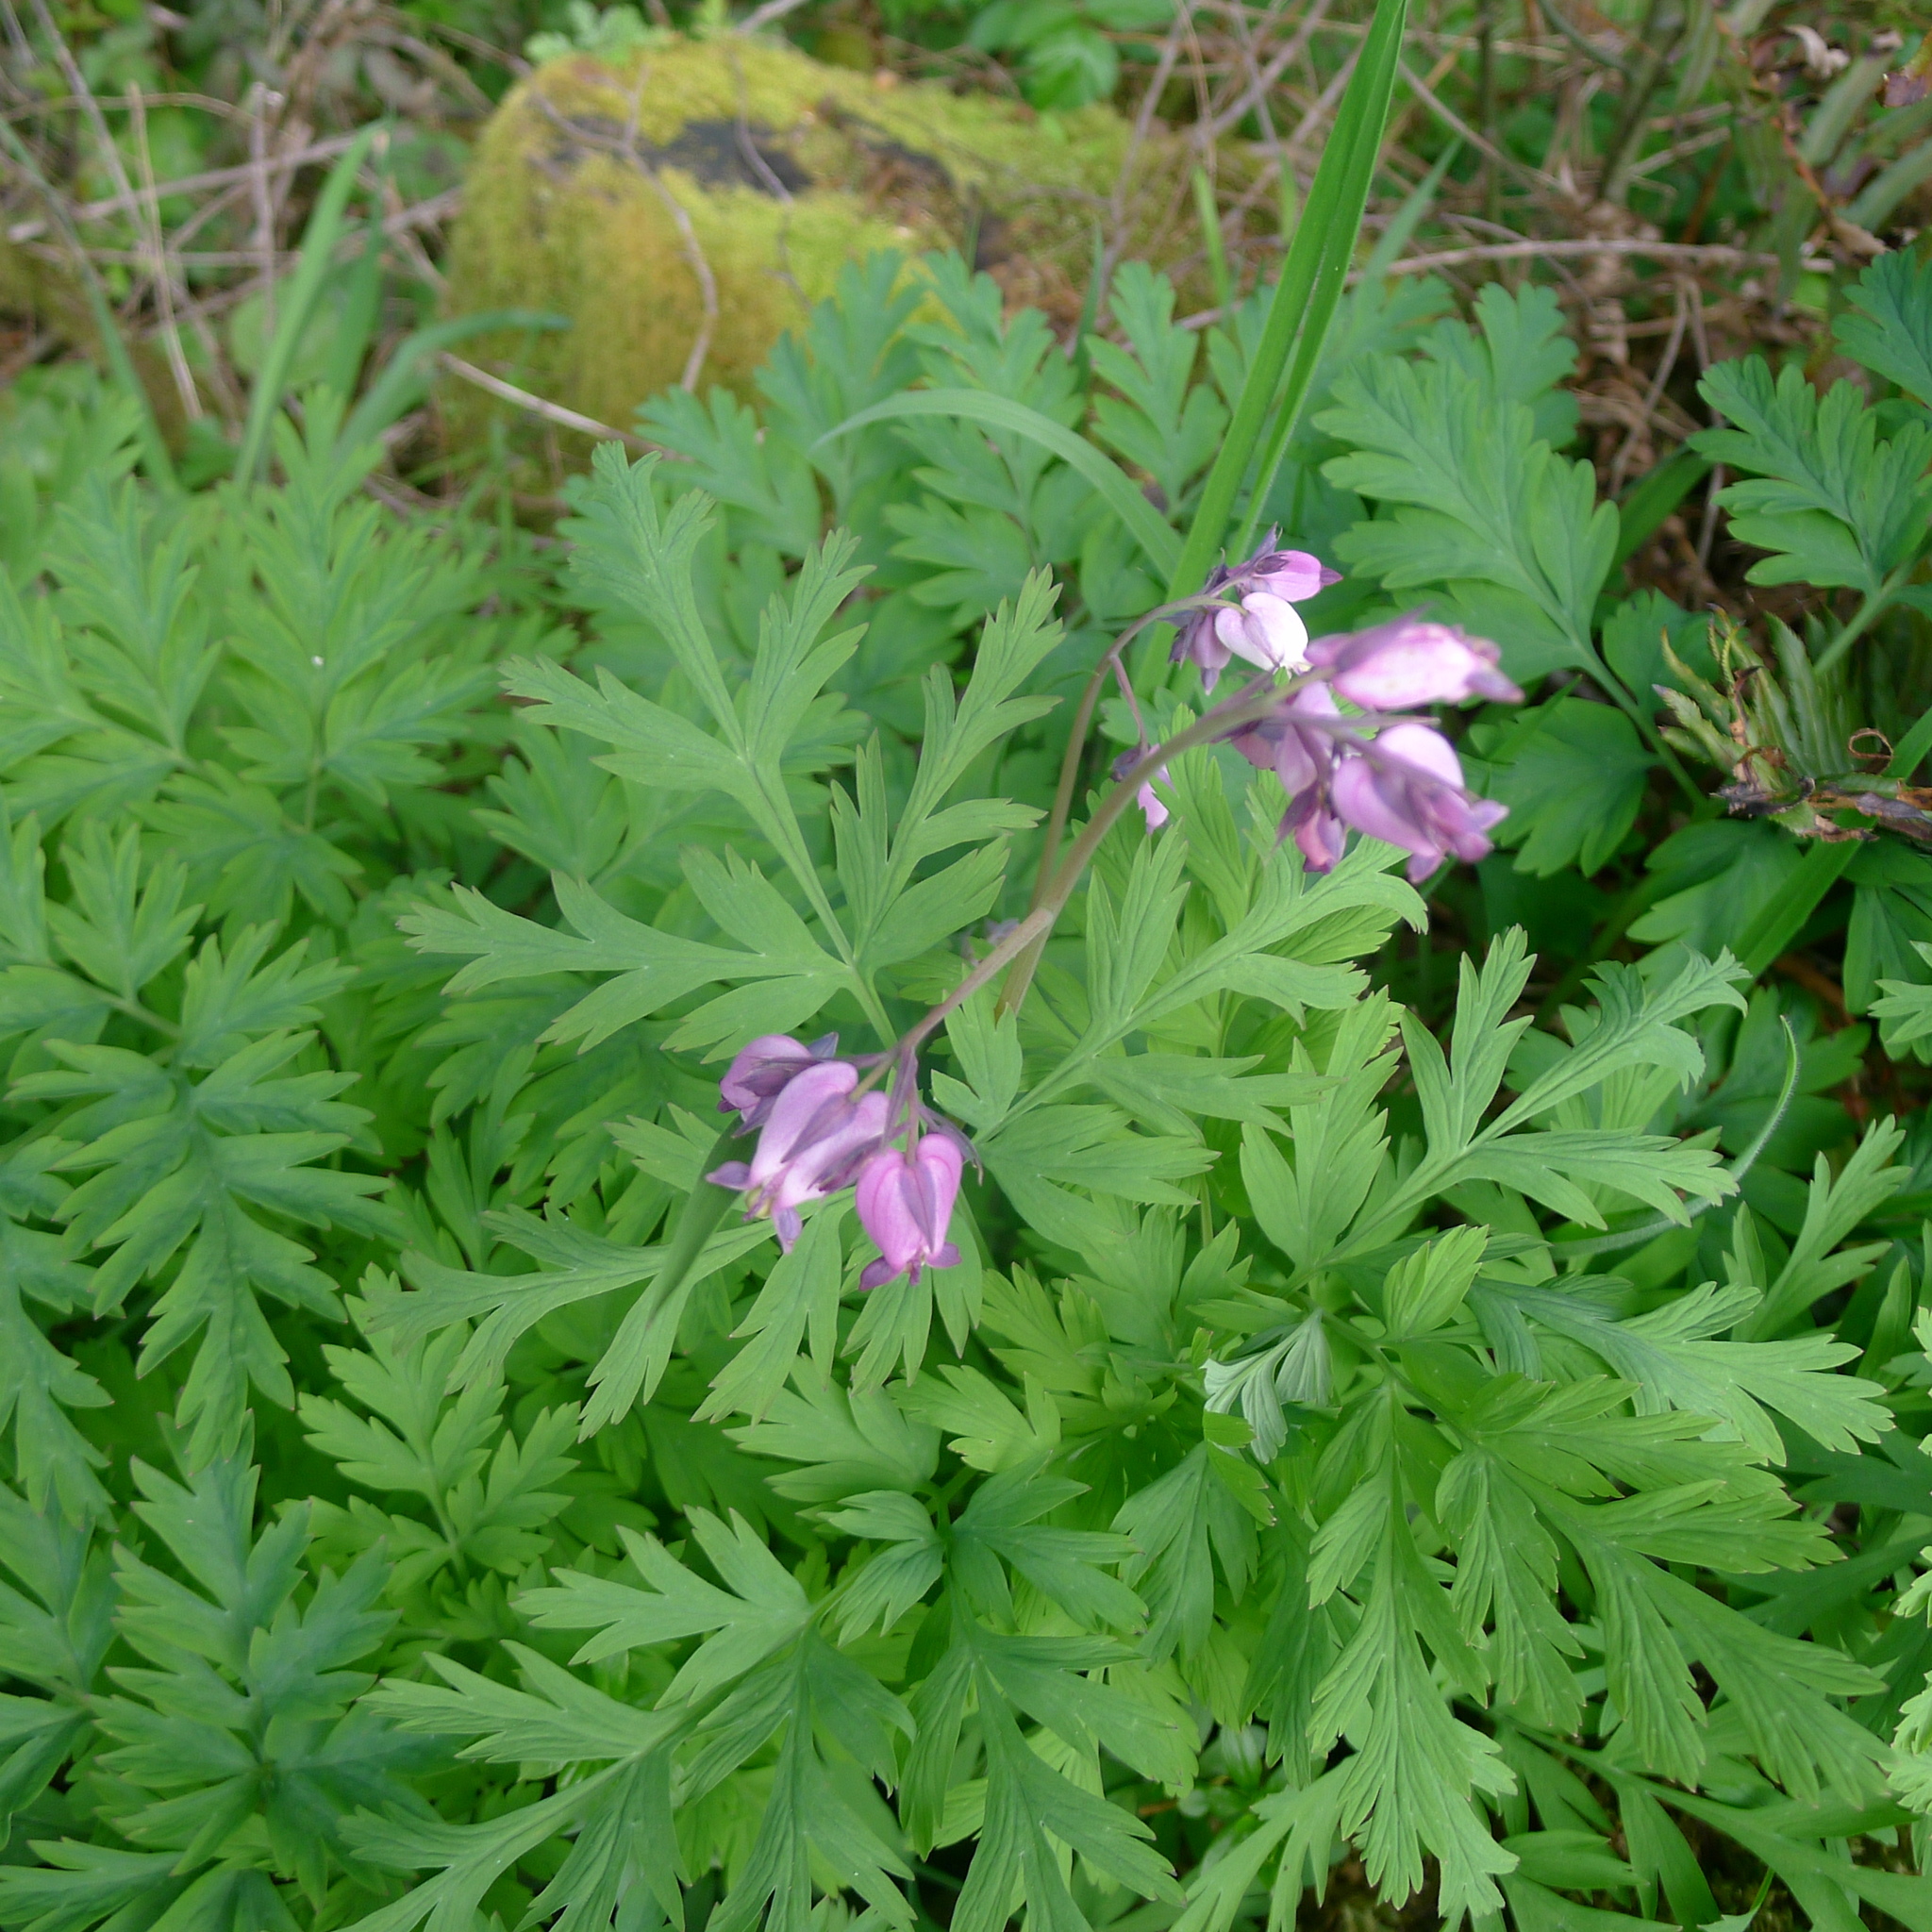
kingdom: Plantae
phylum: Tracheophyta
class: Magnoliopsida
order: Ranunculales
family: Papaveraceae
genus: Dicentra
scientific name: Dicentra formosa
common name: Bleeding-heart
